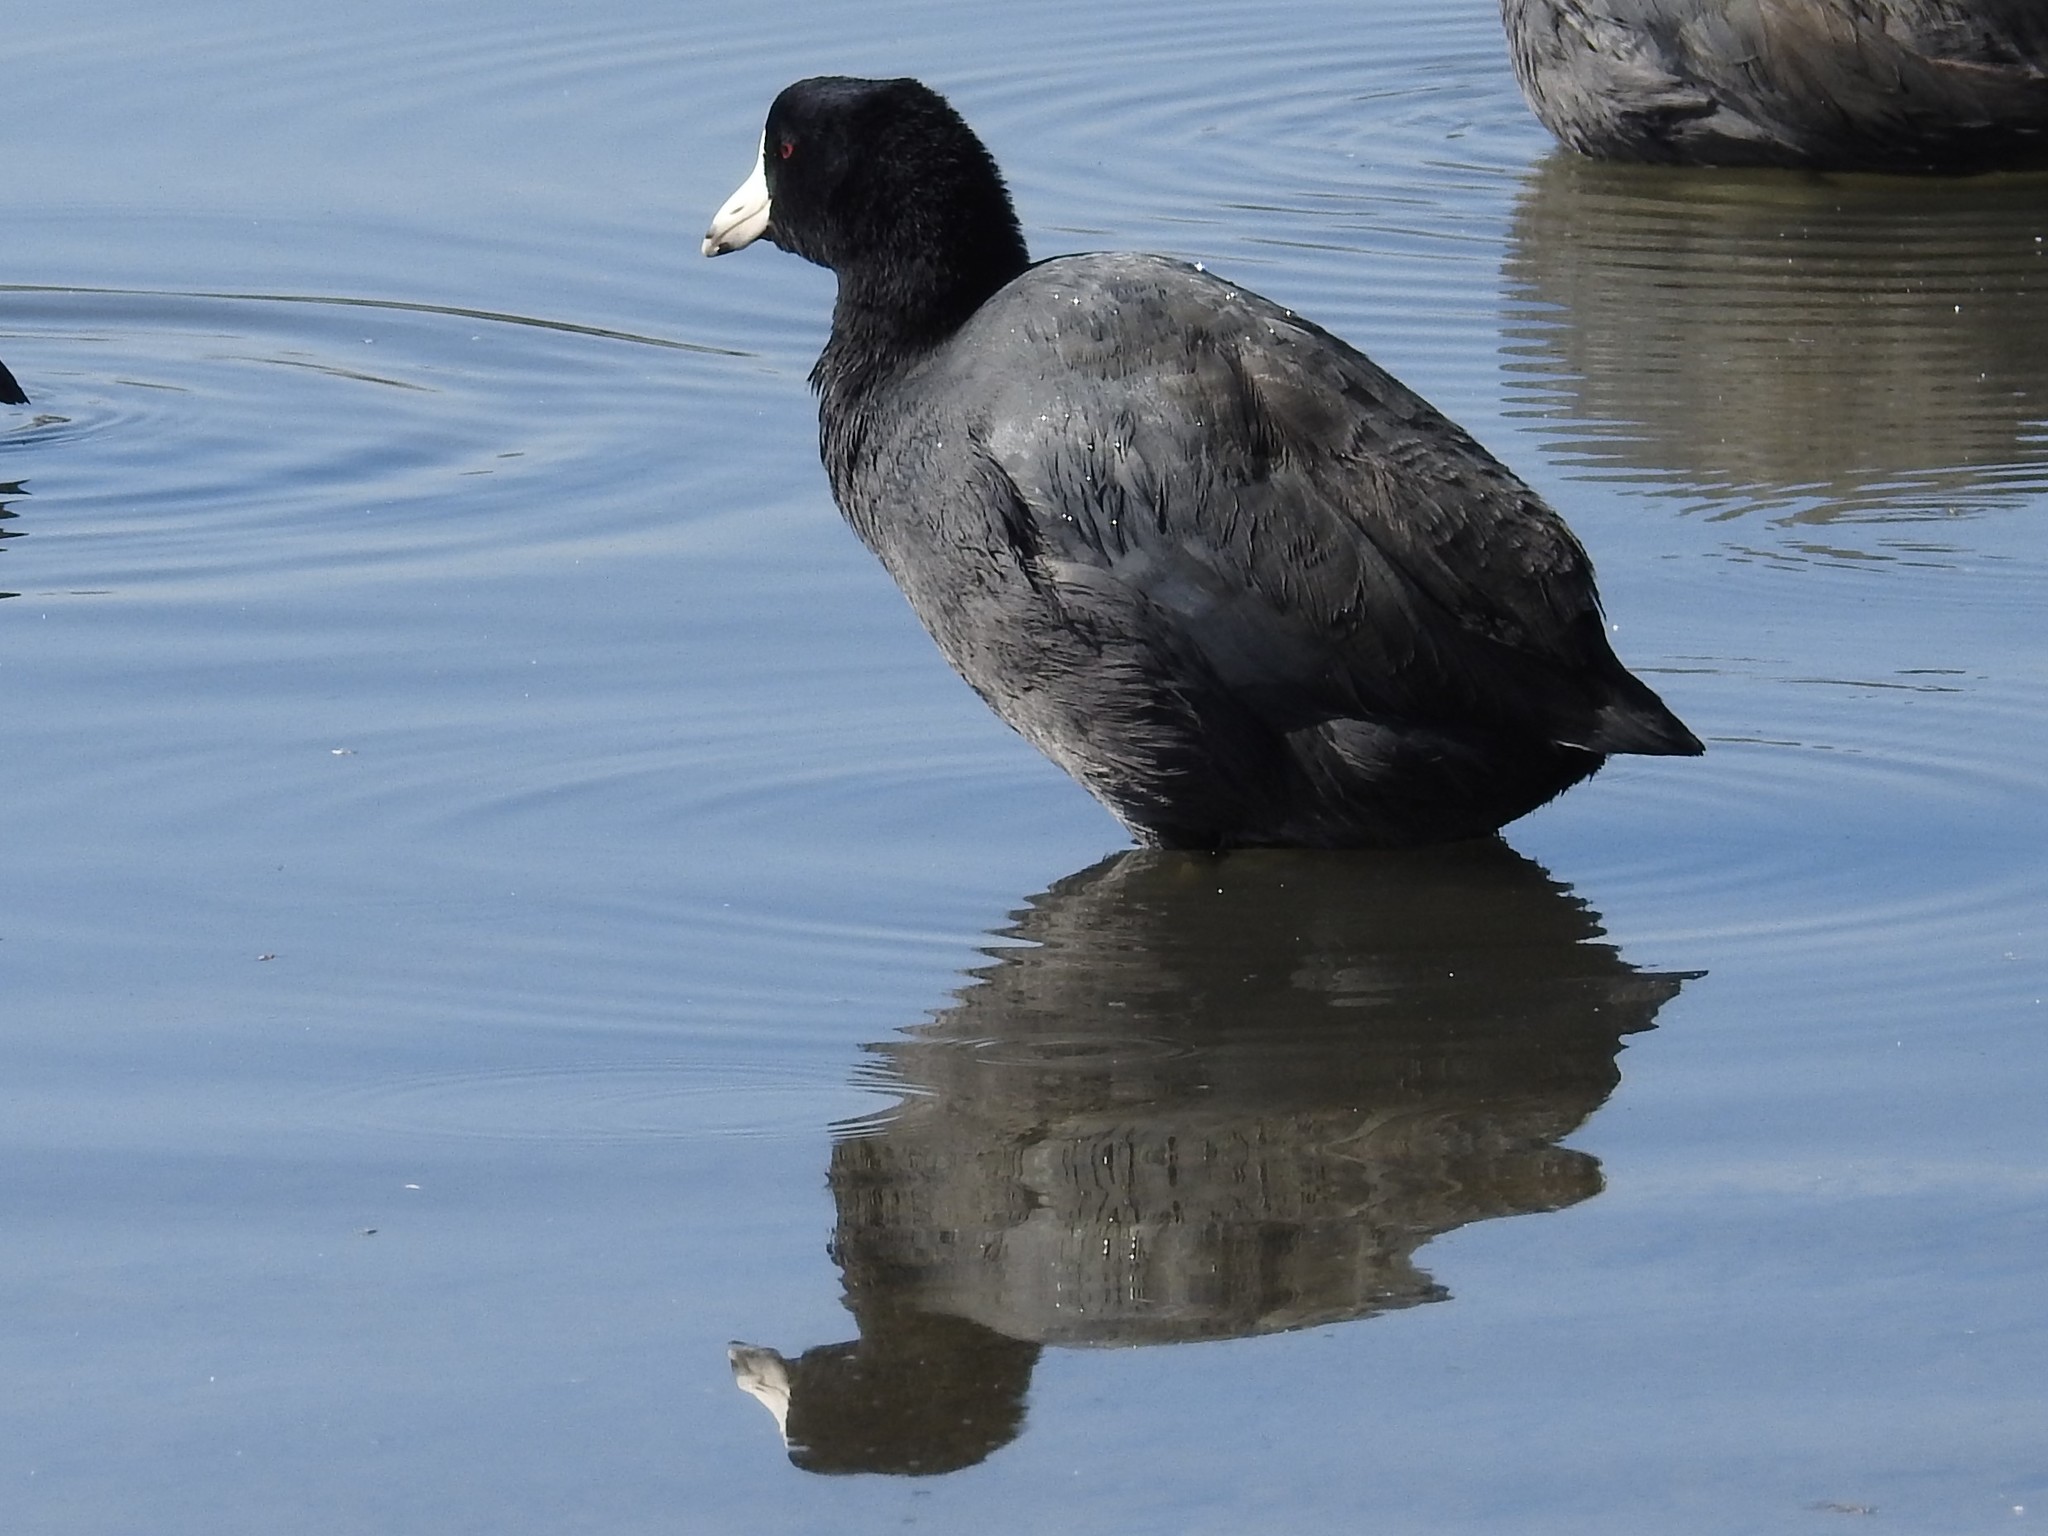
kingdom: Animalia
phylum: Chordata
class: Aves
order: Gruiformes
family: Rallidae
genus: Fulica
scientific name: Fulica americana
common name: American coot
